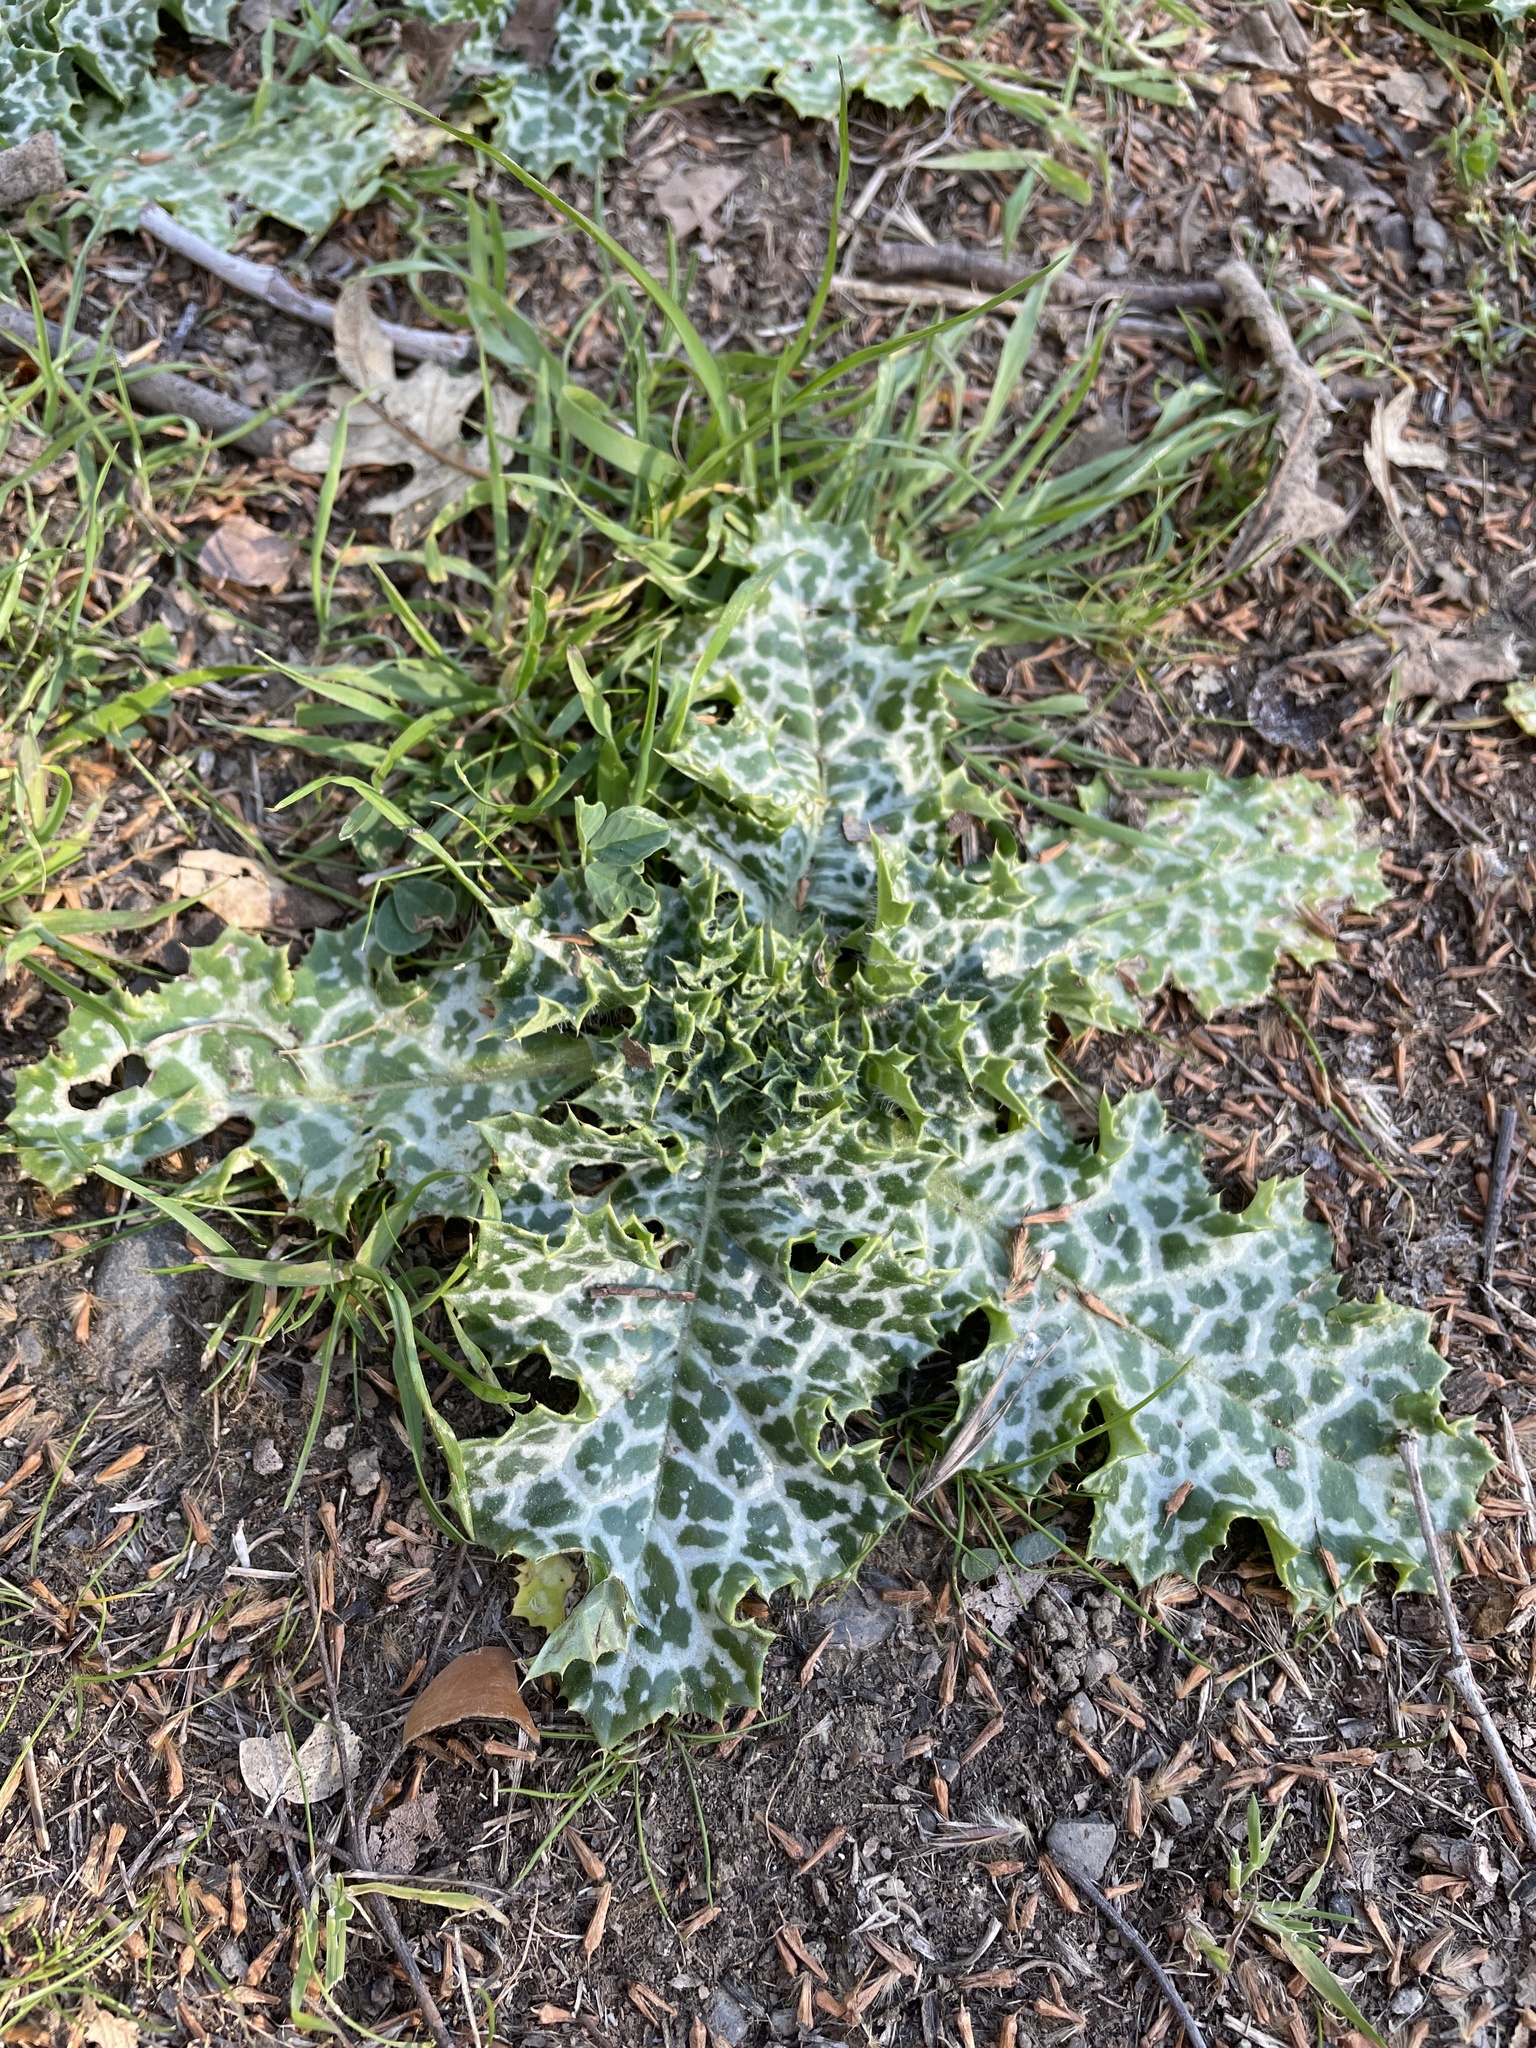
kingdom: Plantae
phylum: Tracheophyta
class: Magnoliopsida
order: Asterales
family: Asteraceae
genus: Silybum
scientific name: Silybum marianum
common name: Milk thistle
